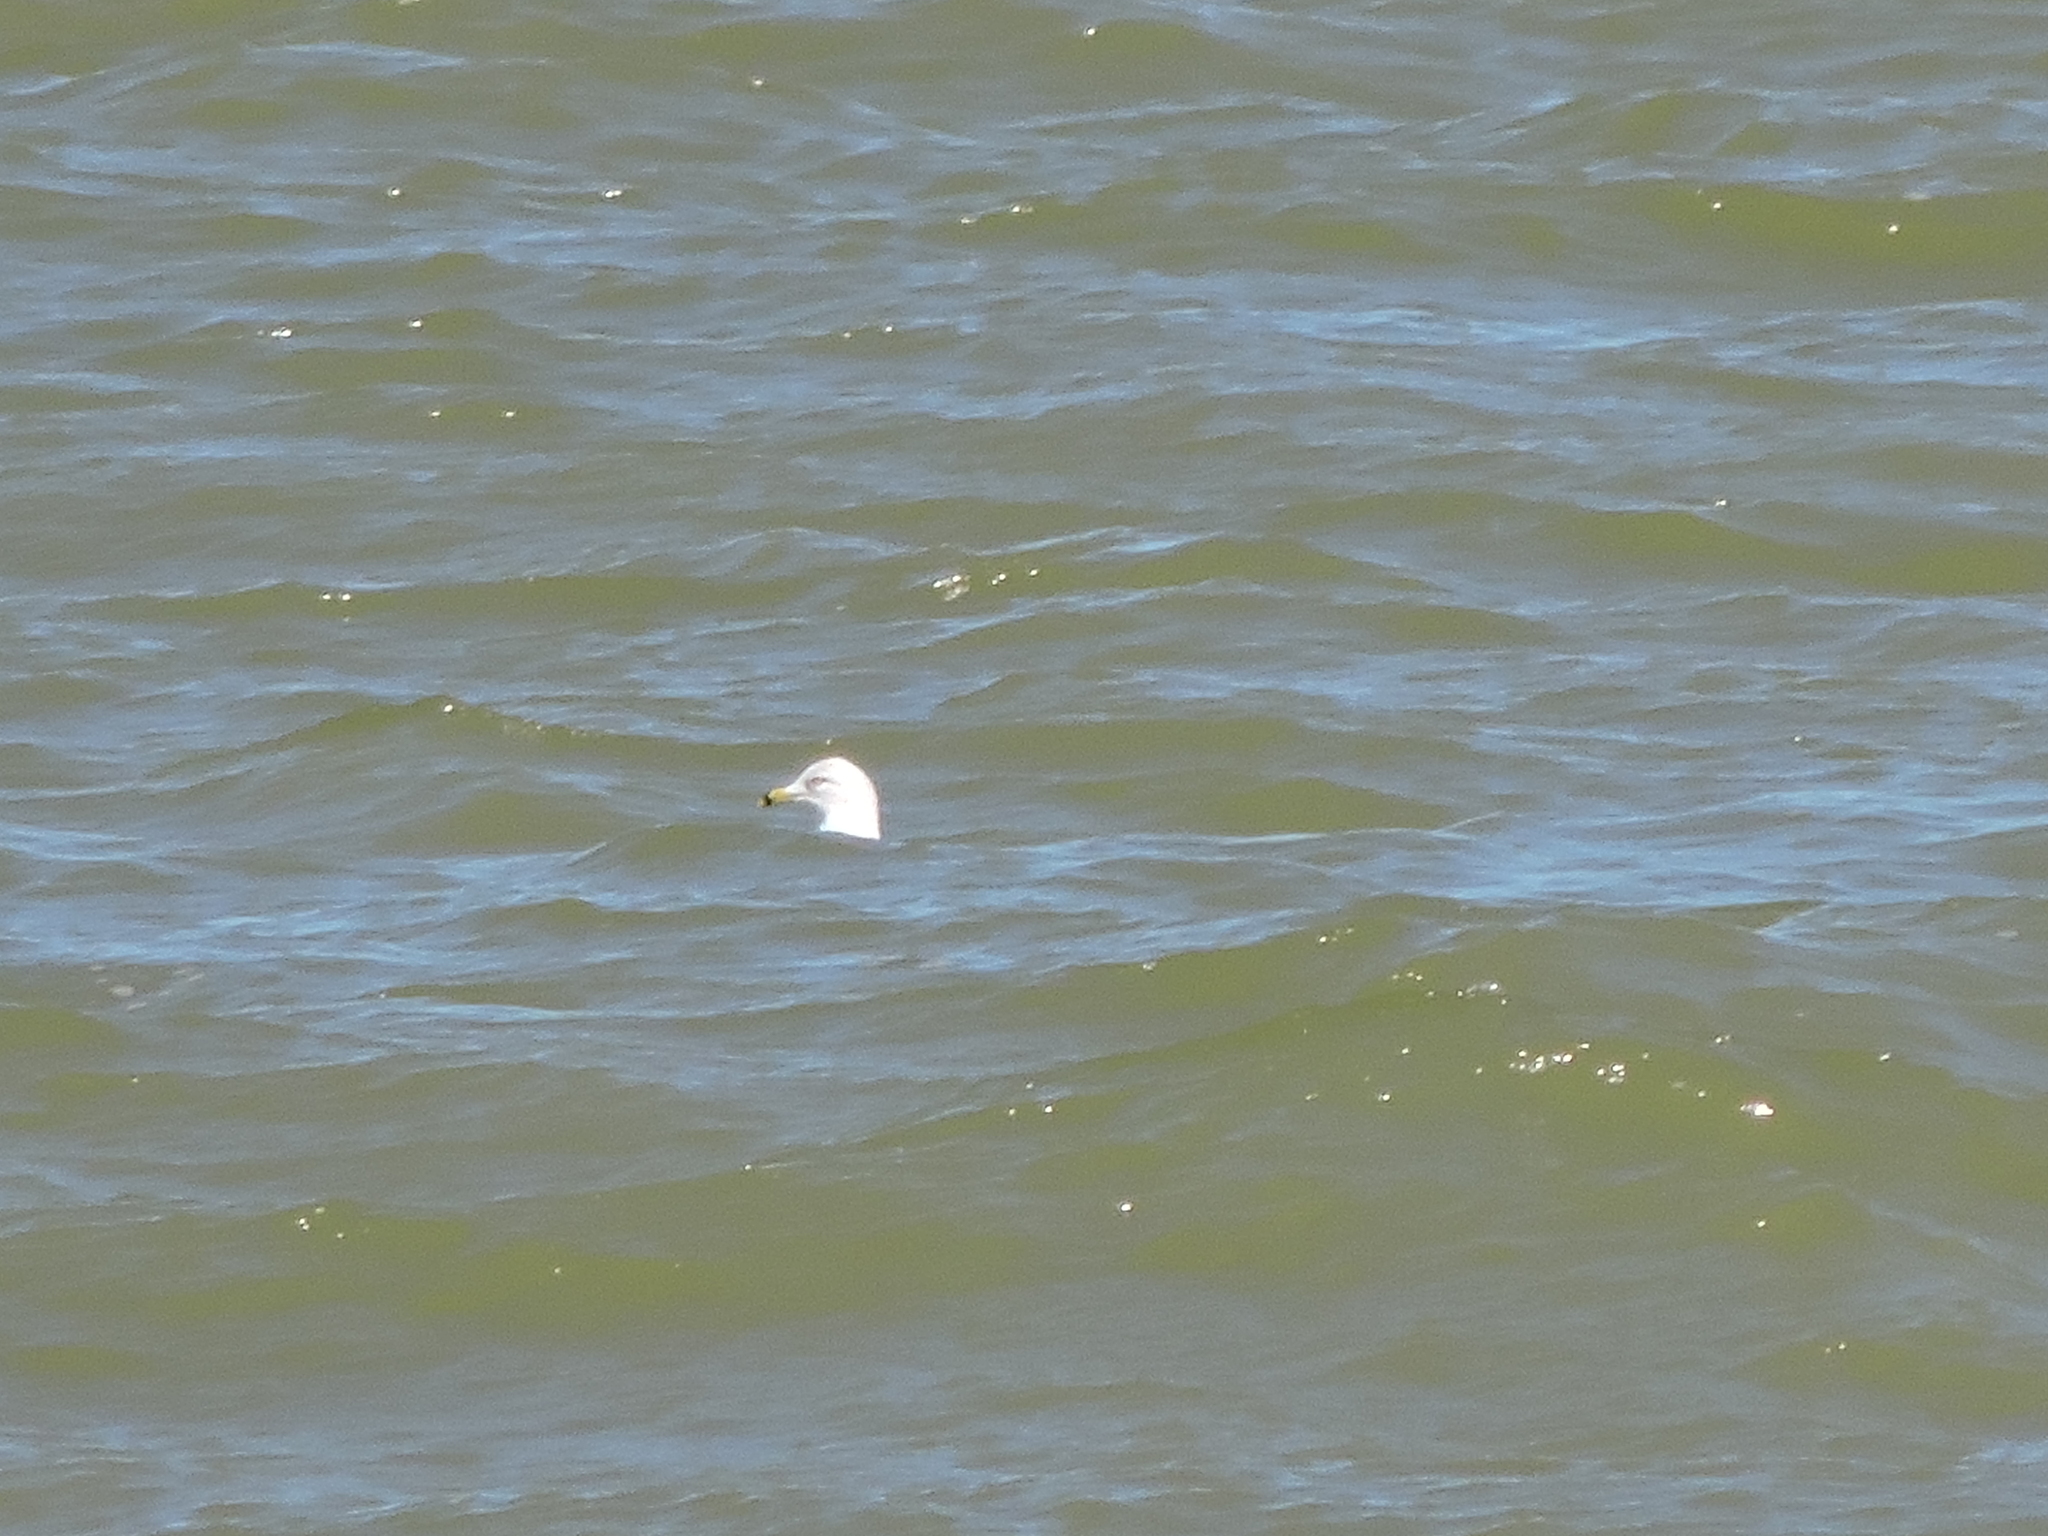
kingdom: Animalia
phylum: Chordata
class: Aves
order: Charadriiformes
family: Laridae
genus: Larus
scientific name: Larus delawarensis
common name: Ring-billed gull
